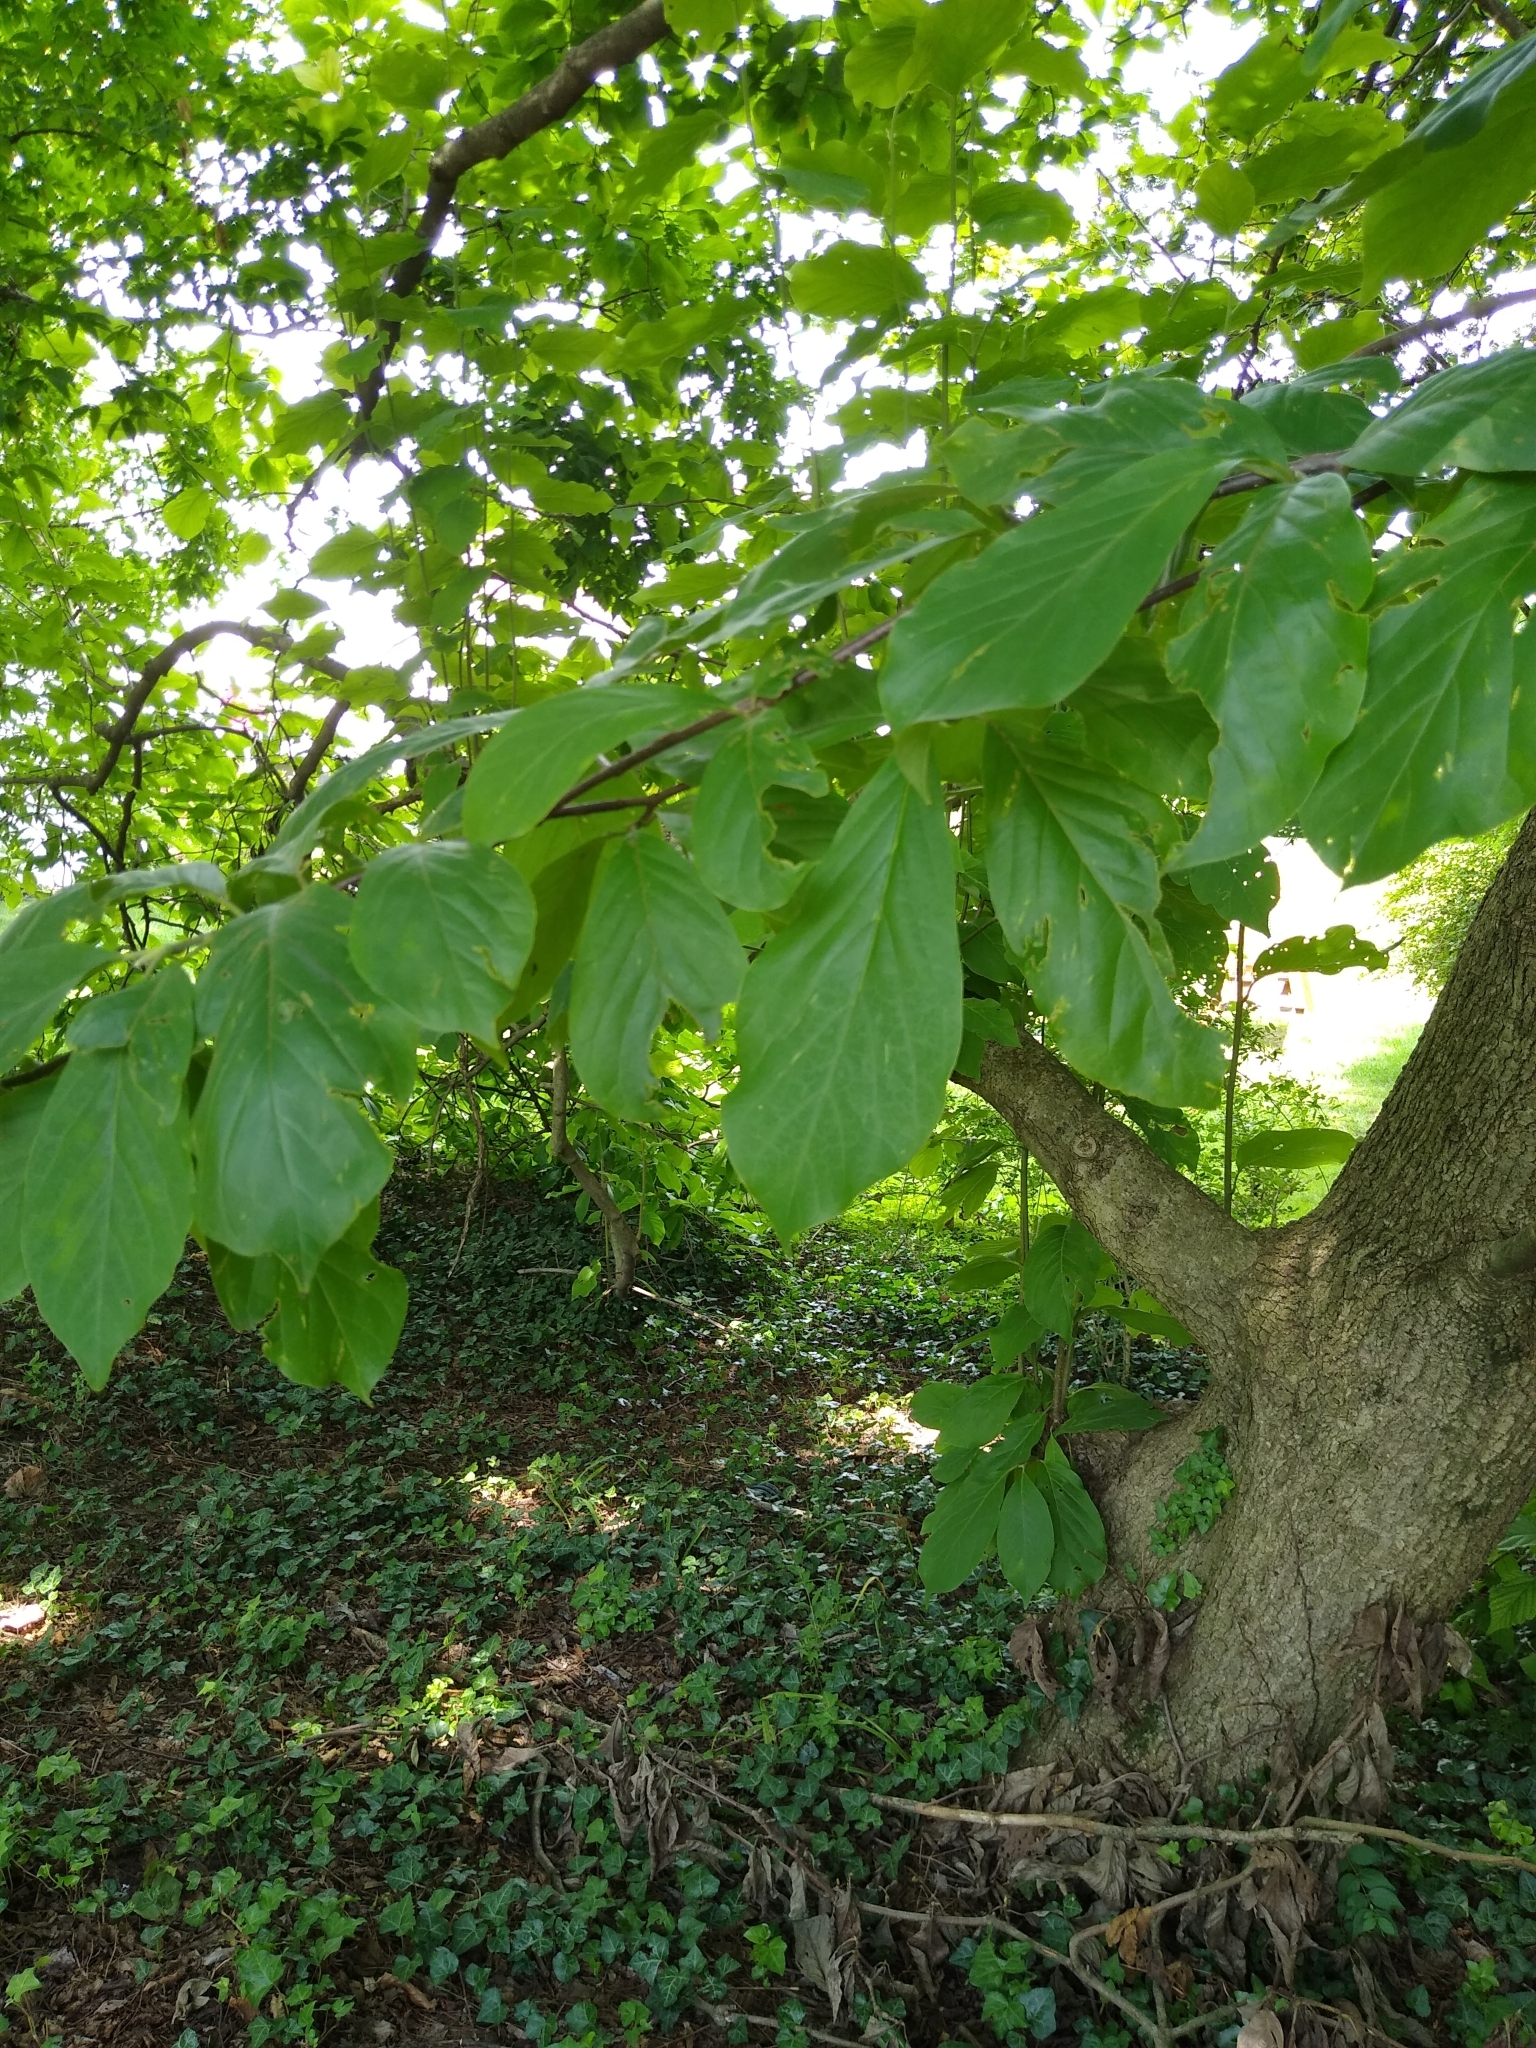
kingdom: Plantae
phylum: Tracheophyta
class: Magnoliopsida
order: Magnoliales
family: Magnoliaceae
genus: Magnolia
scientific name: Magnolia acuminata
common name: Cucumber magnolia
